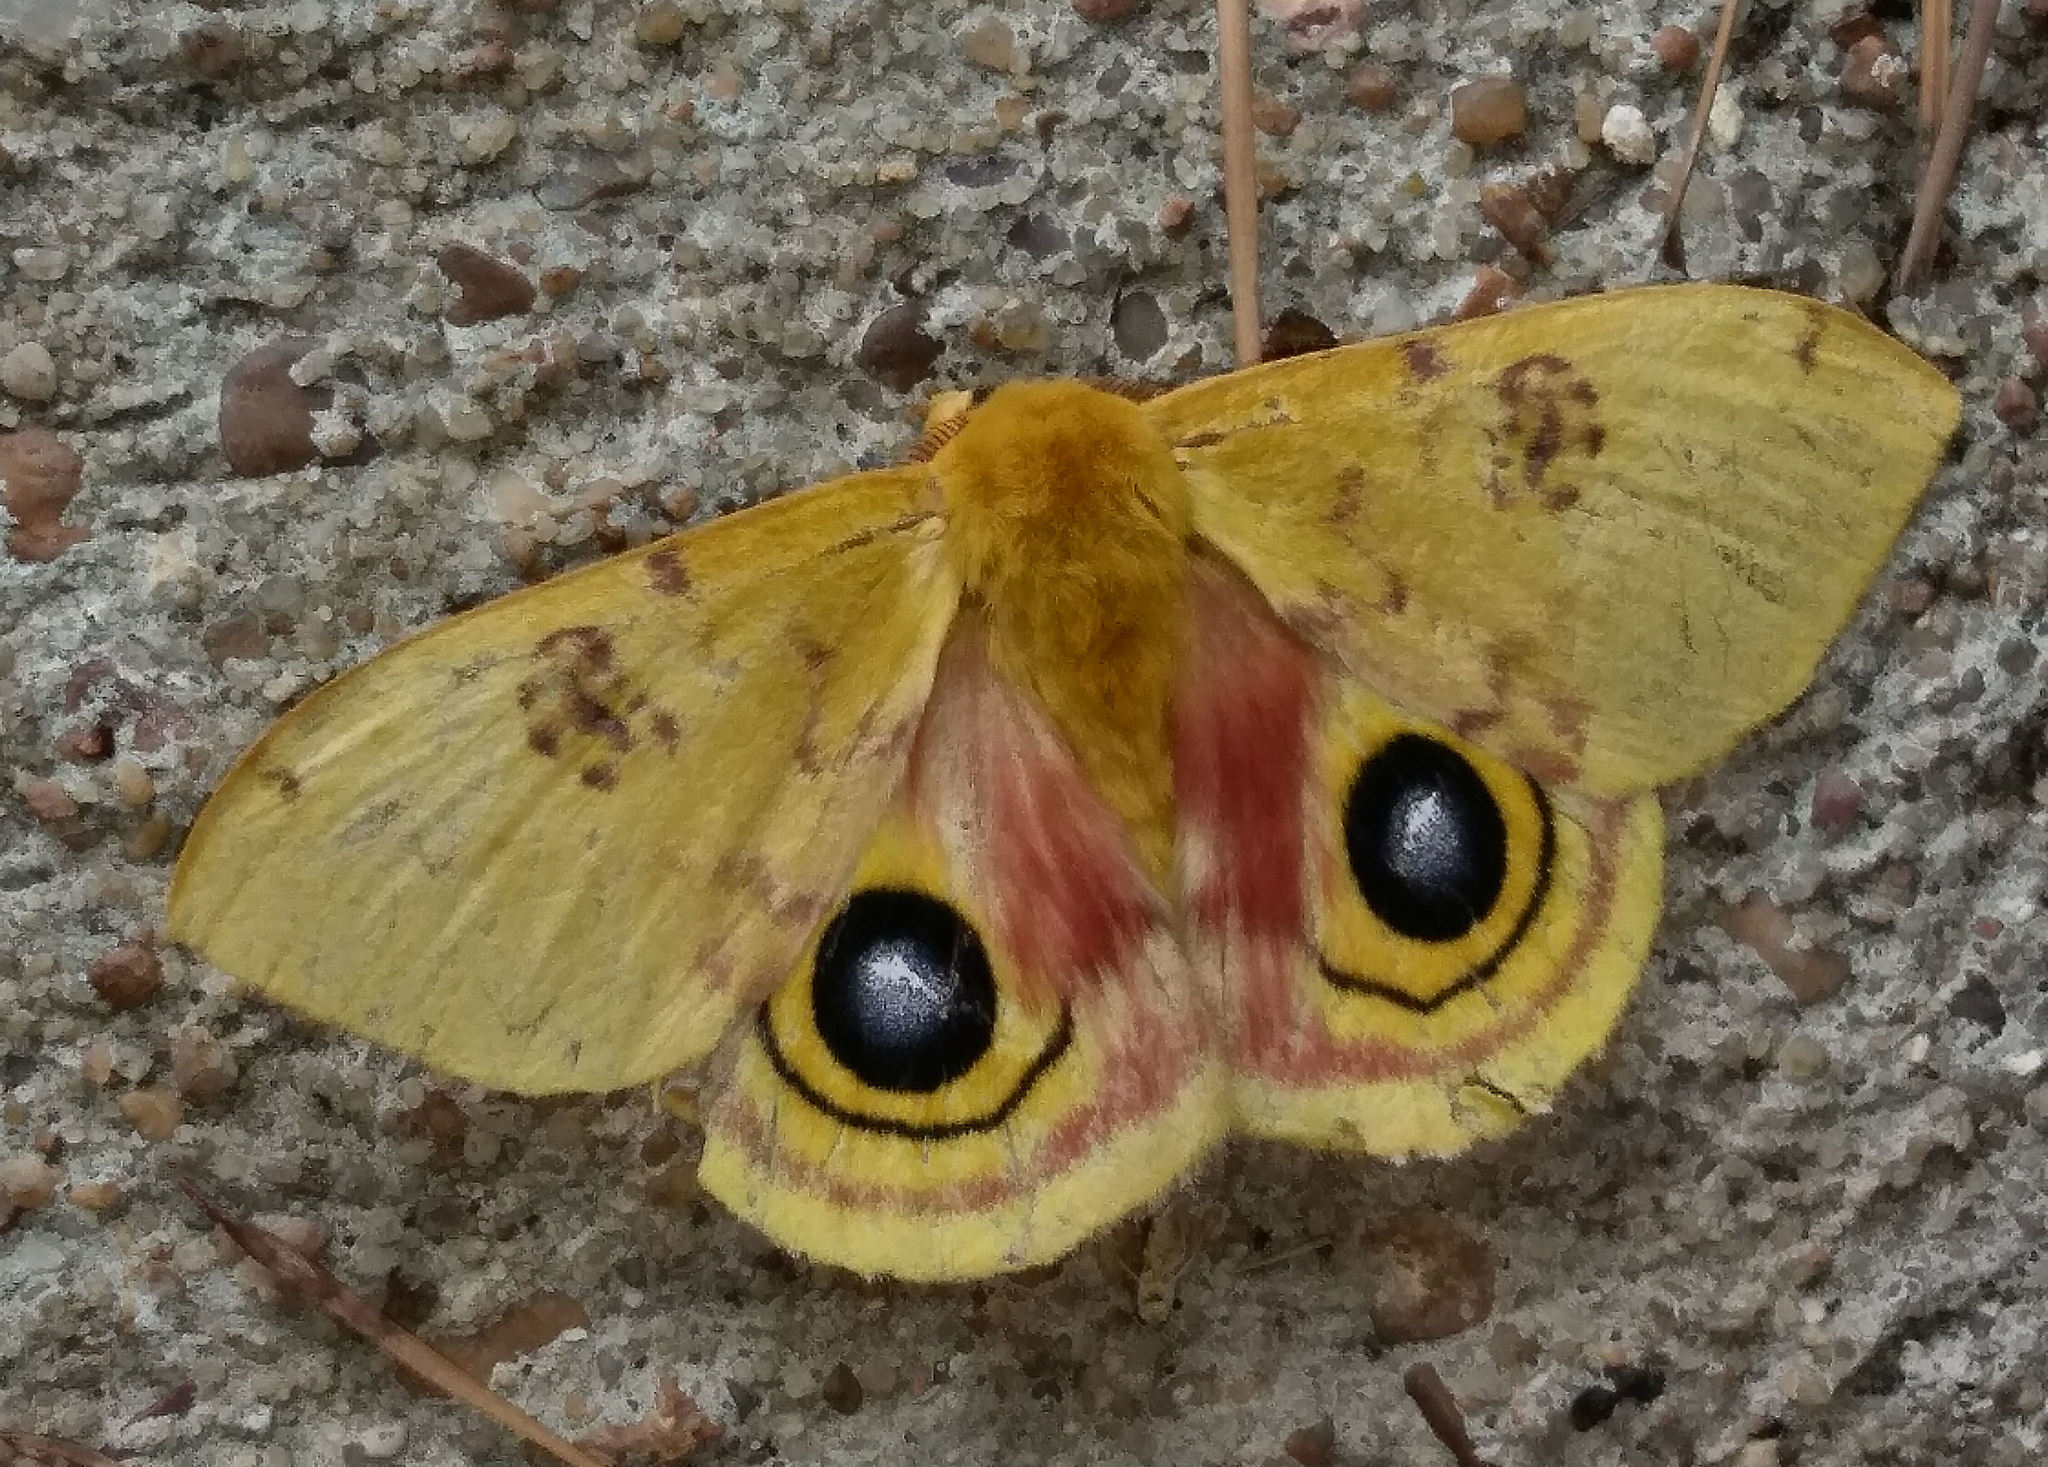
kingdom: Animalia
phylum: Arthropoda
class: Insecta
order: Lepidoptera
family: Saturniidae
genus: Automeris
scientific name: Automeris io
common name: Io moth
